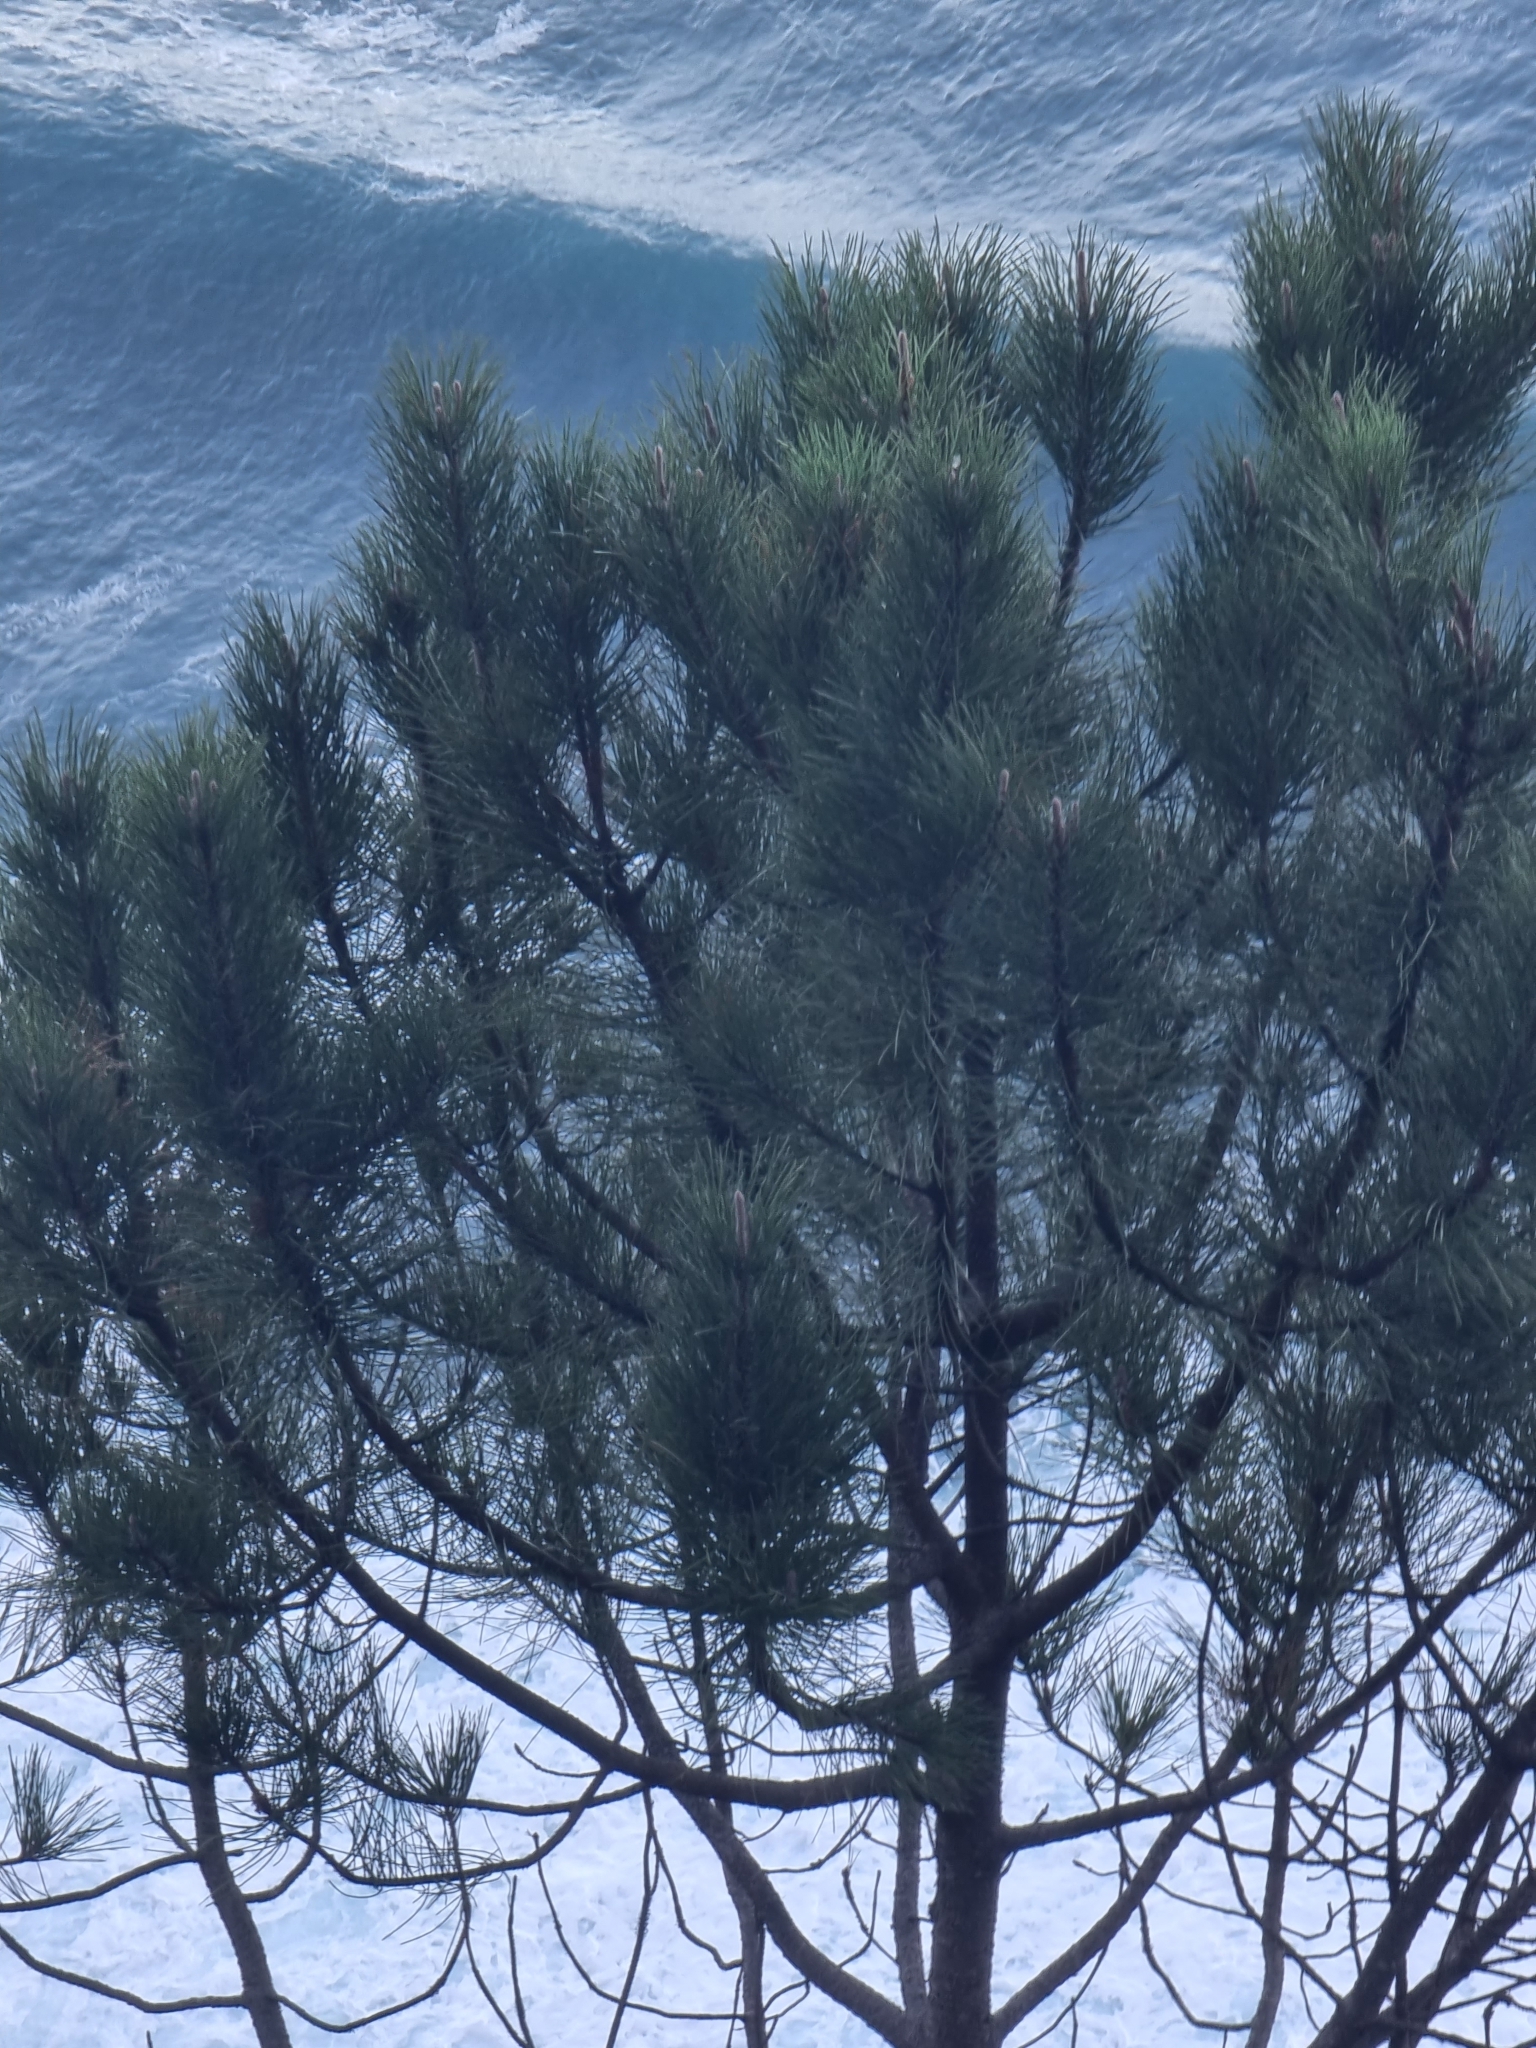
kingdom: Plantae
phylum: Tracheophyta
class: Pinopsida
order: Pinales
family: Pinaceae
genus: Pinus
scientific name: Pinus pinaster
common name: Maritime pine
